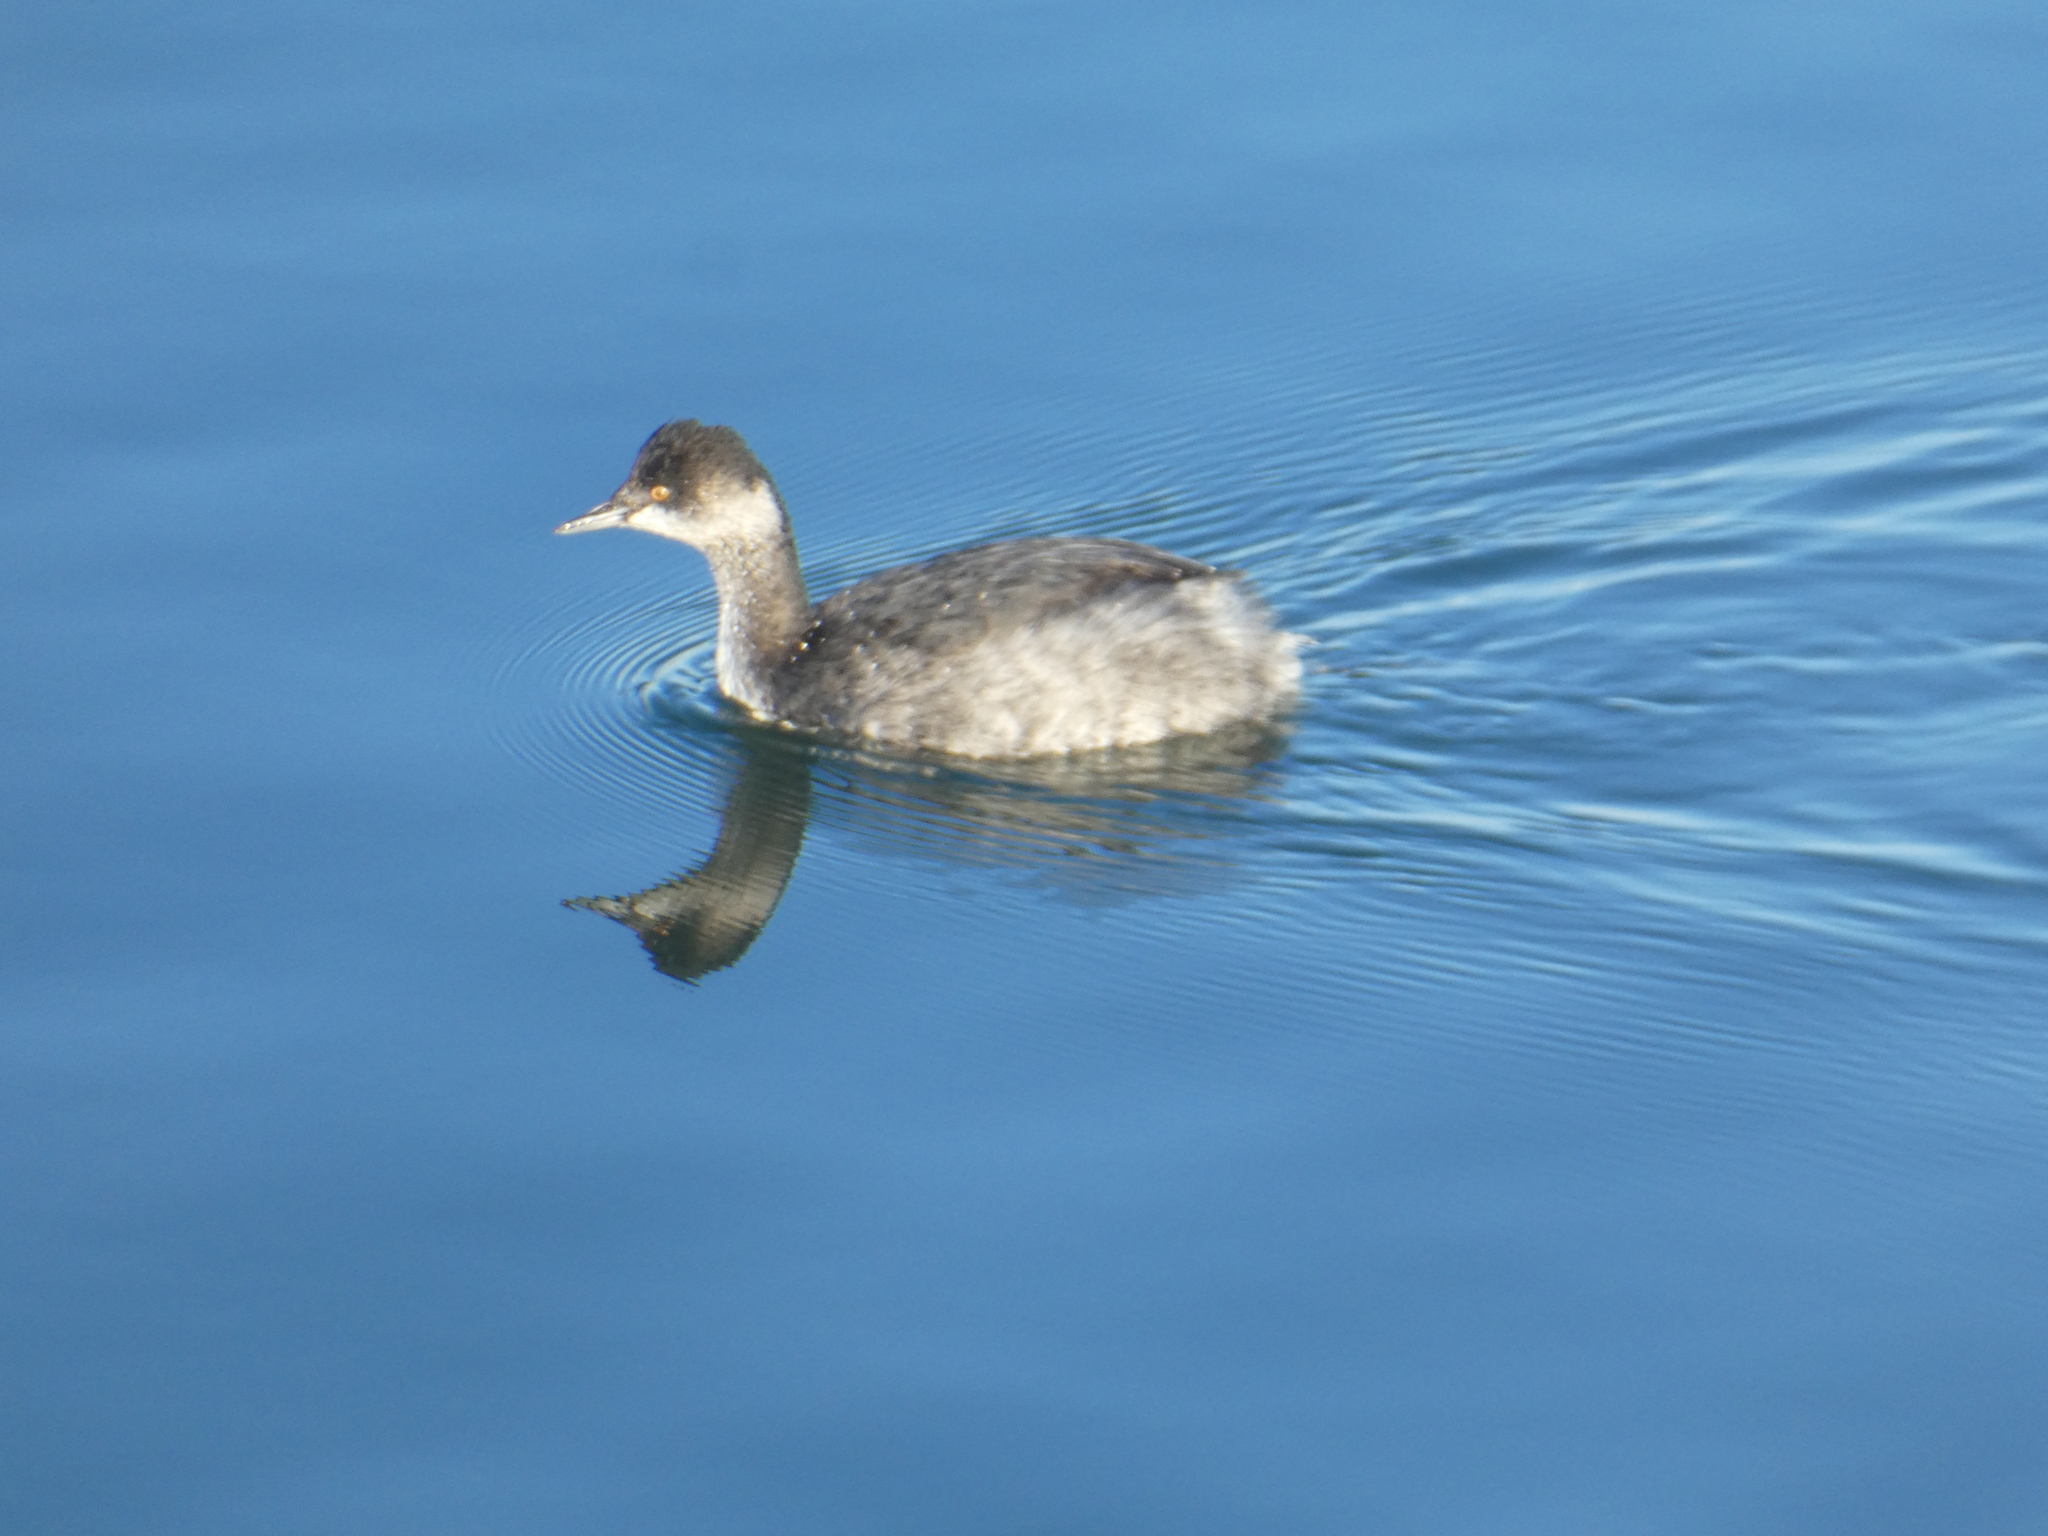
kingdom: Animalia
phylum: Chordata
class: Aves
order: Podicipediformes
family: Podicipedidae
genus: Podiceps
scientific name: Podiceps nigricollis
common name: Black-necked grebe
